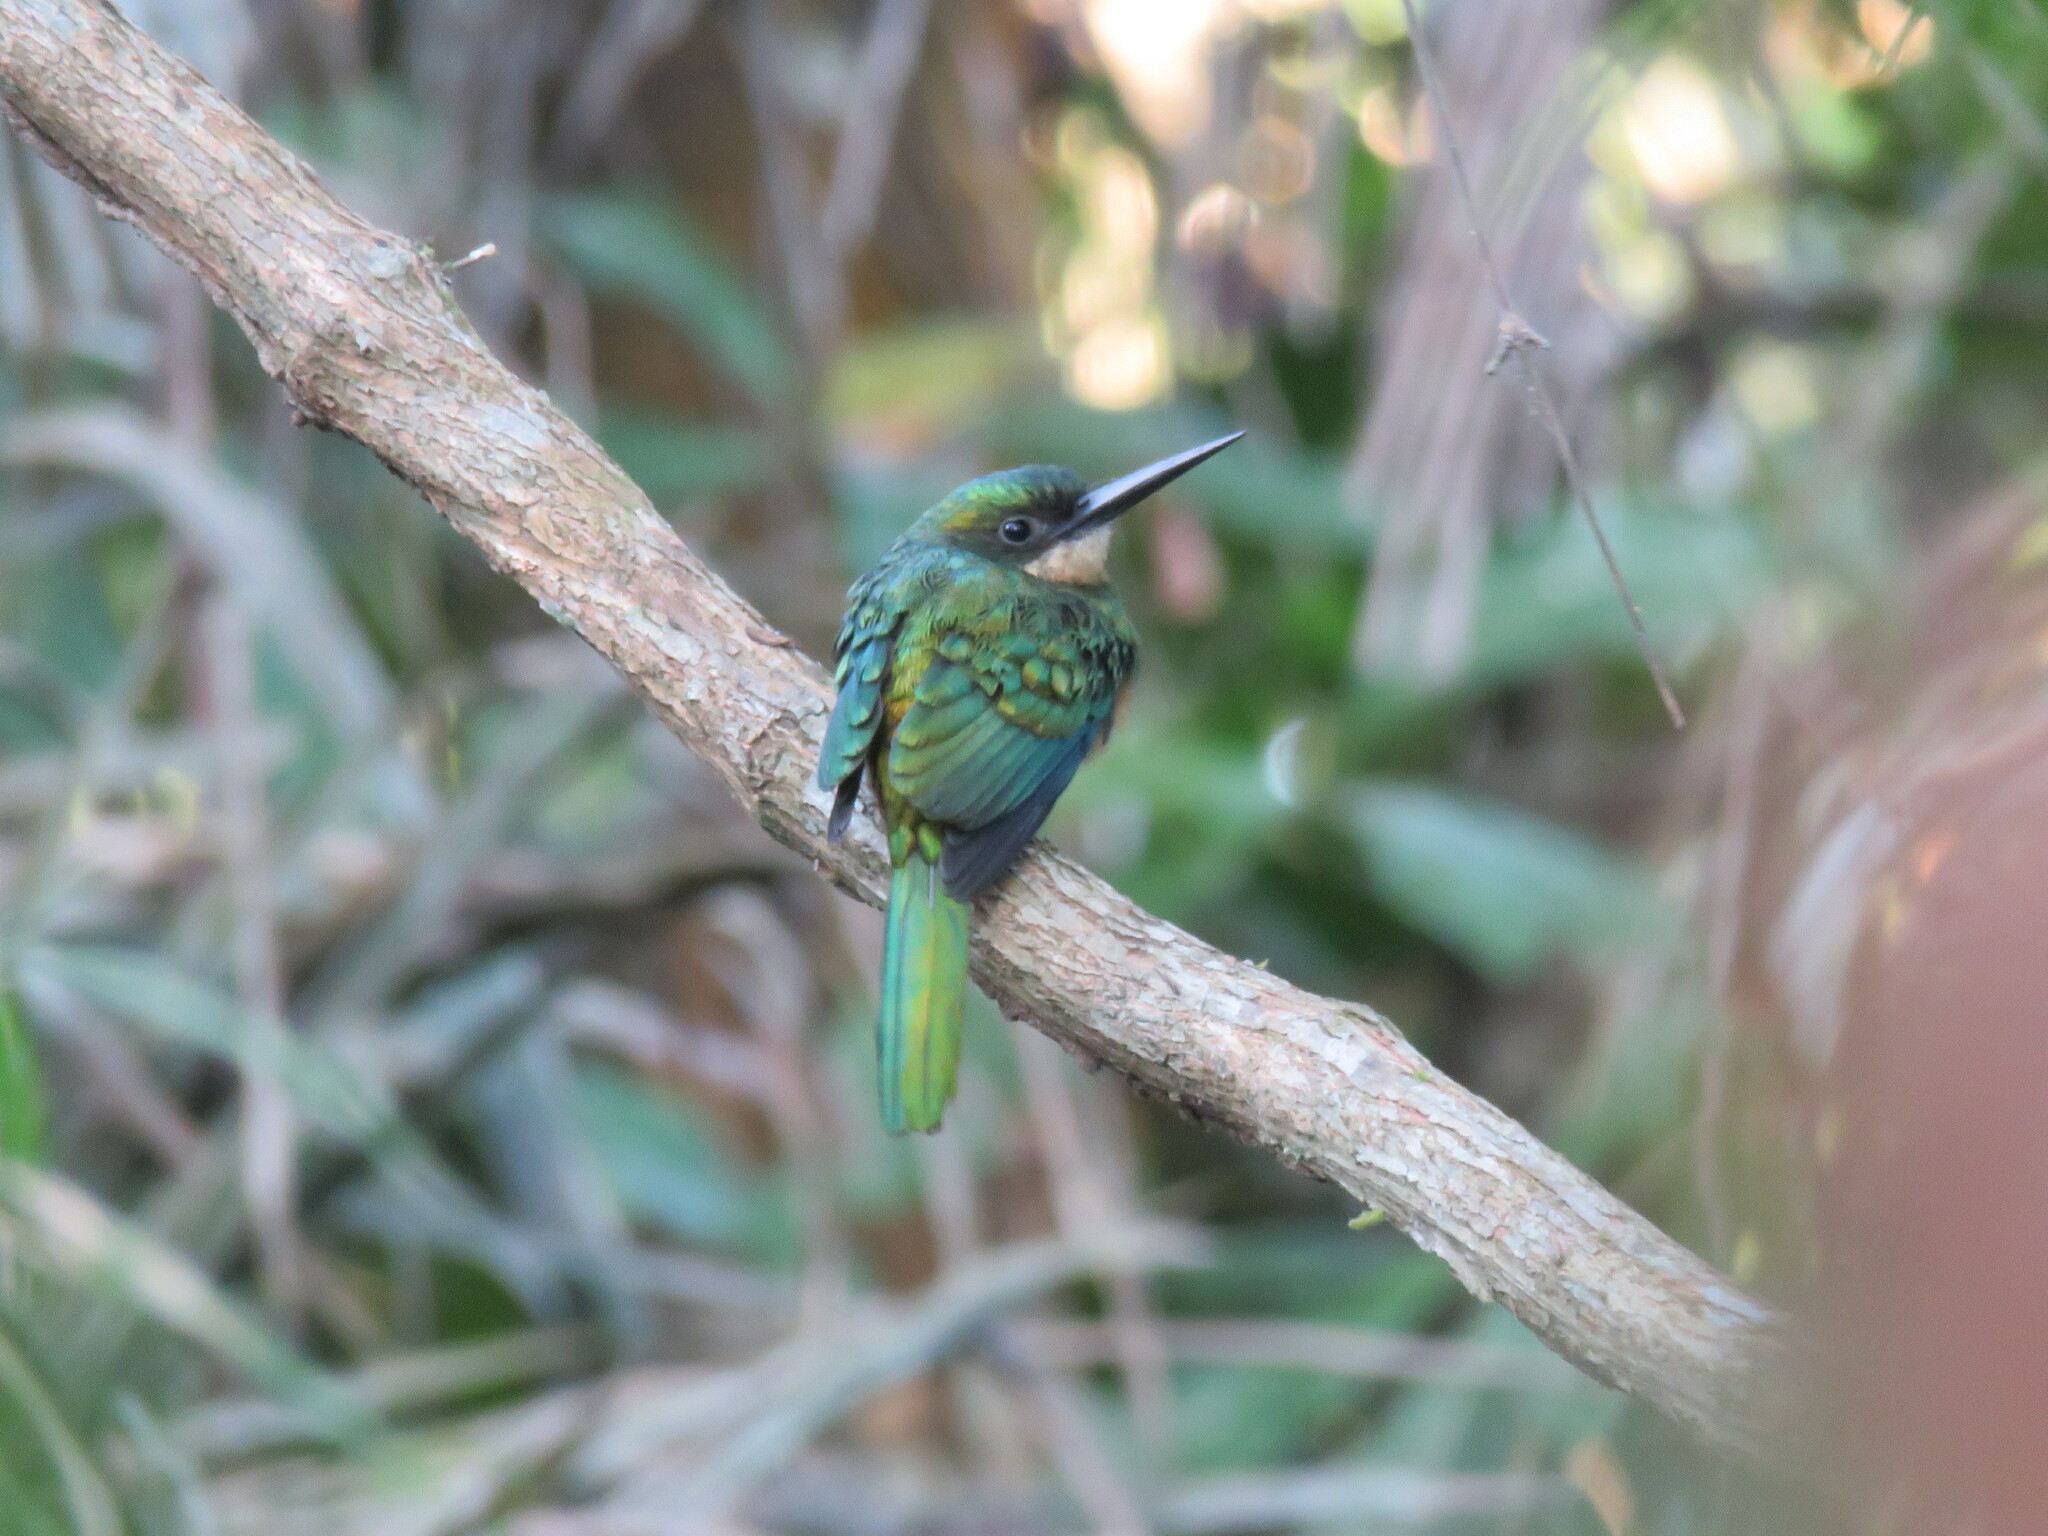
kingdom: Animalia
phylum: Chordata
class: Aves
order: Piciformes
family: Galbulidae
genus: Galbula
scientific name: Galbula ruficauda
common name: Rufous-tailed jacamar
